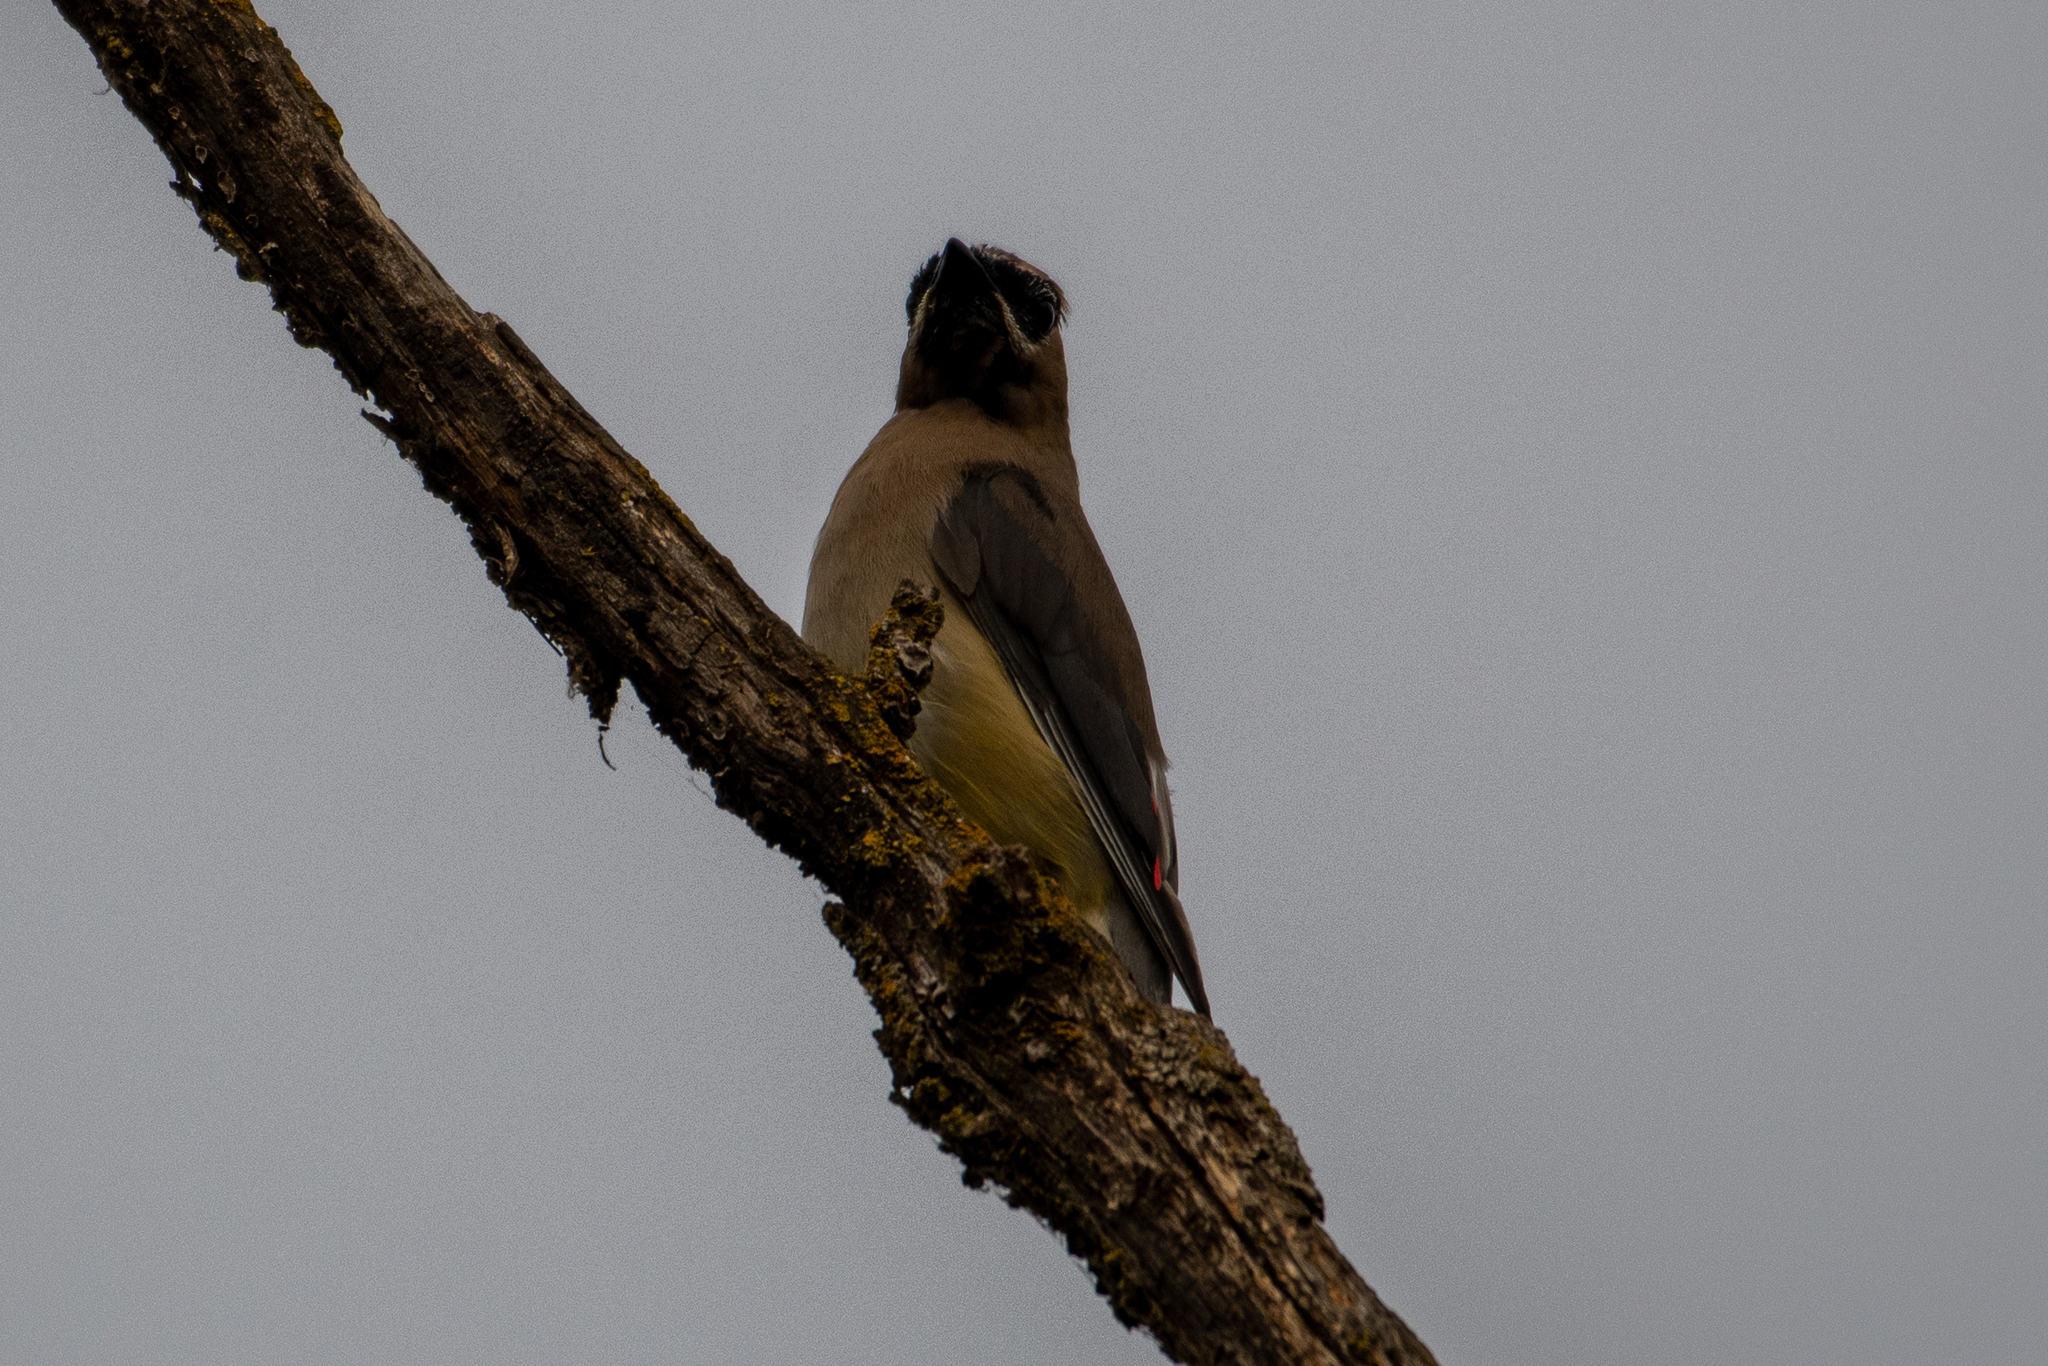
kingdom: Animalia
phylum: Chordata
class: Aves
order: Passeriformes
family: Bombycillidae
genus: Bombycilla
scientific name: Bombycilla cedrorum
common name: Cedar waxwing
